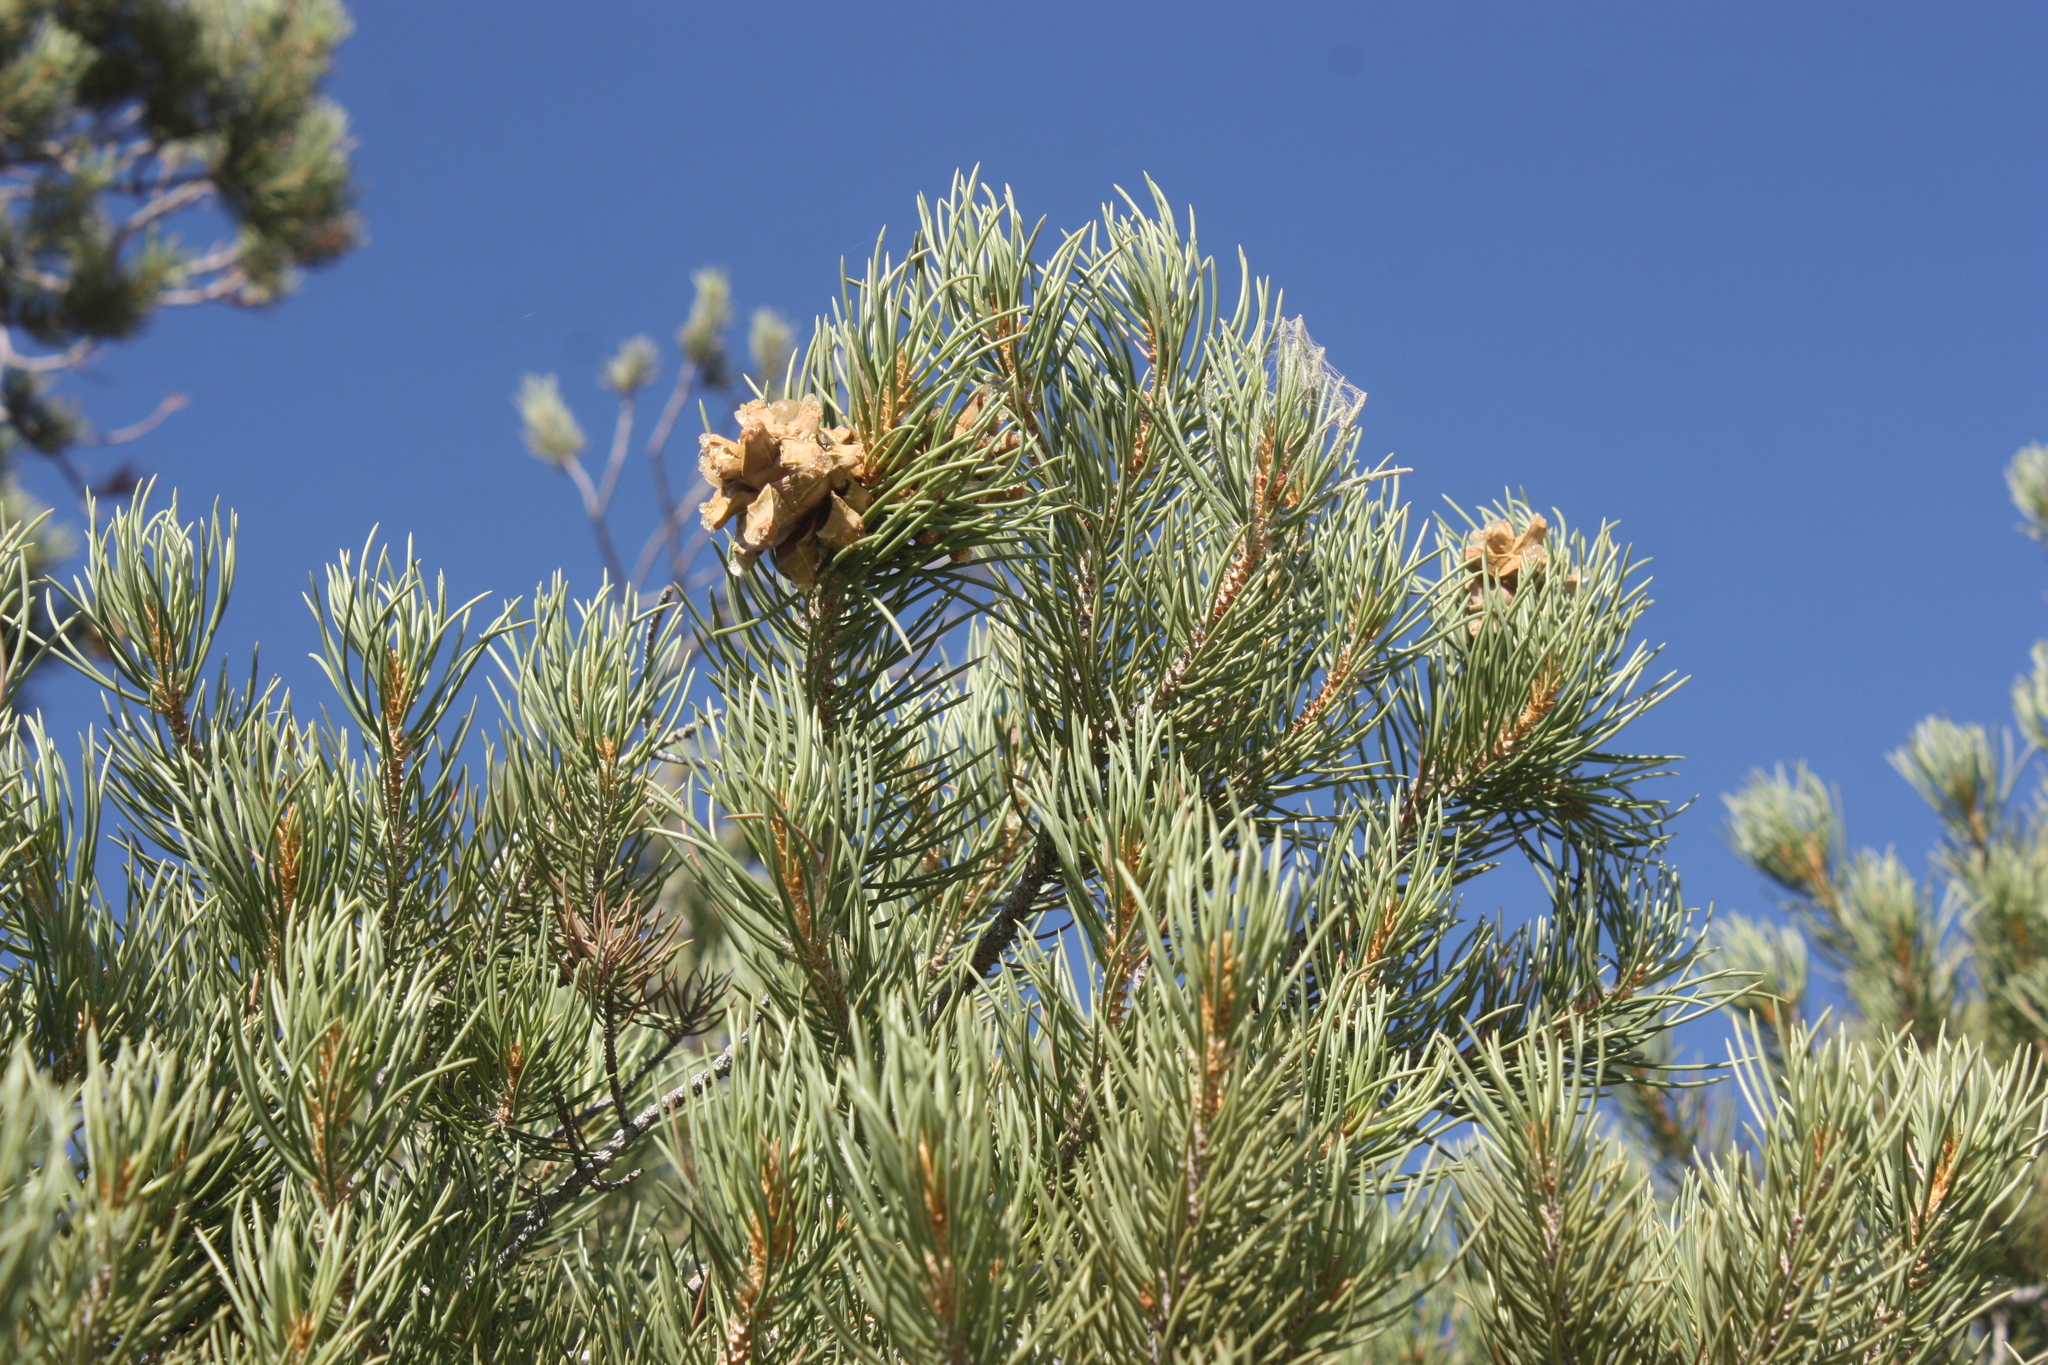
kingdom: Plantae
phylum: Tracheophyta
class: Pinopsida
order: Pinales
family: Pinaceae
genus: Pinus
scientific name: Pinus monophylla
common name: One-leaved nut pine
